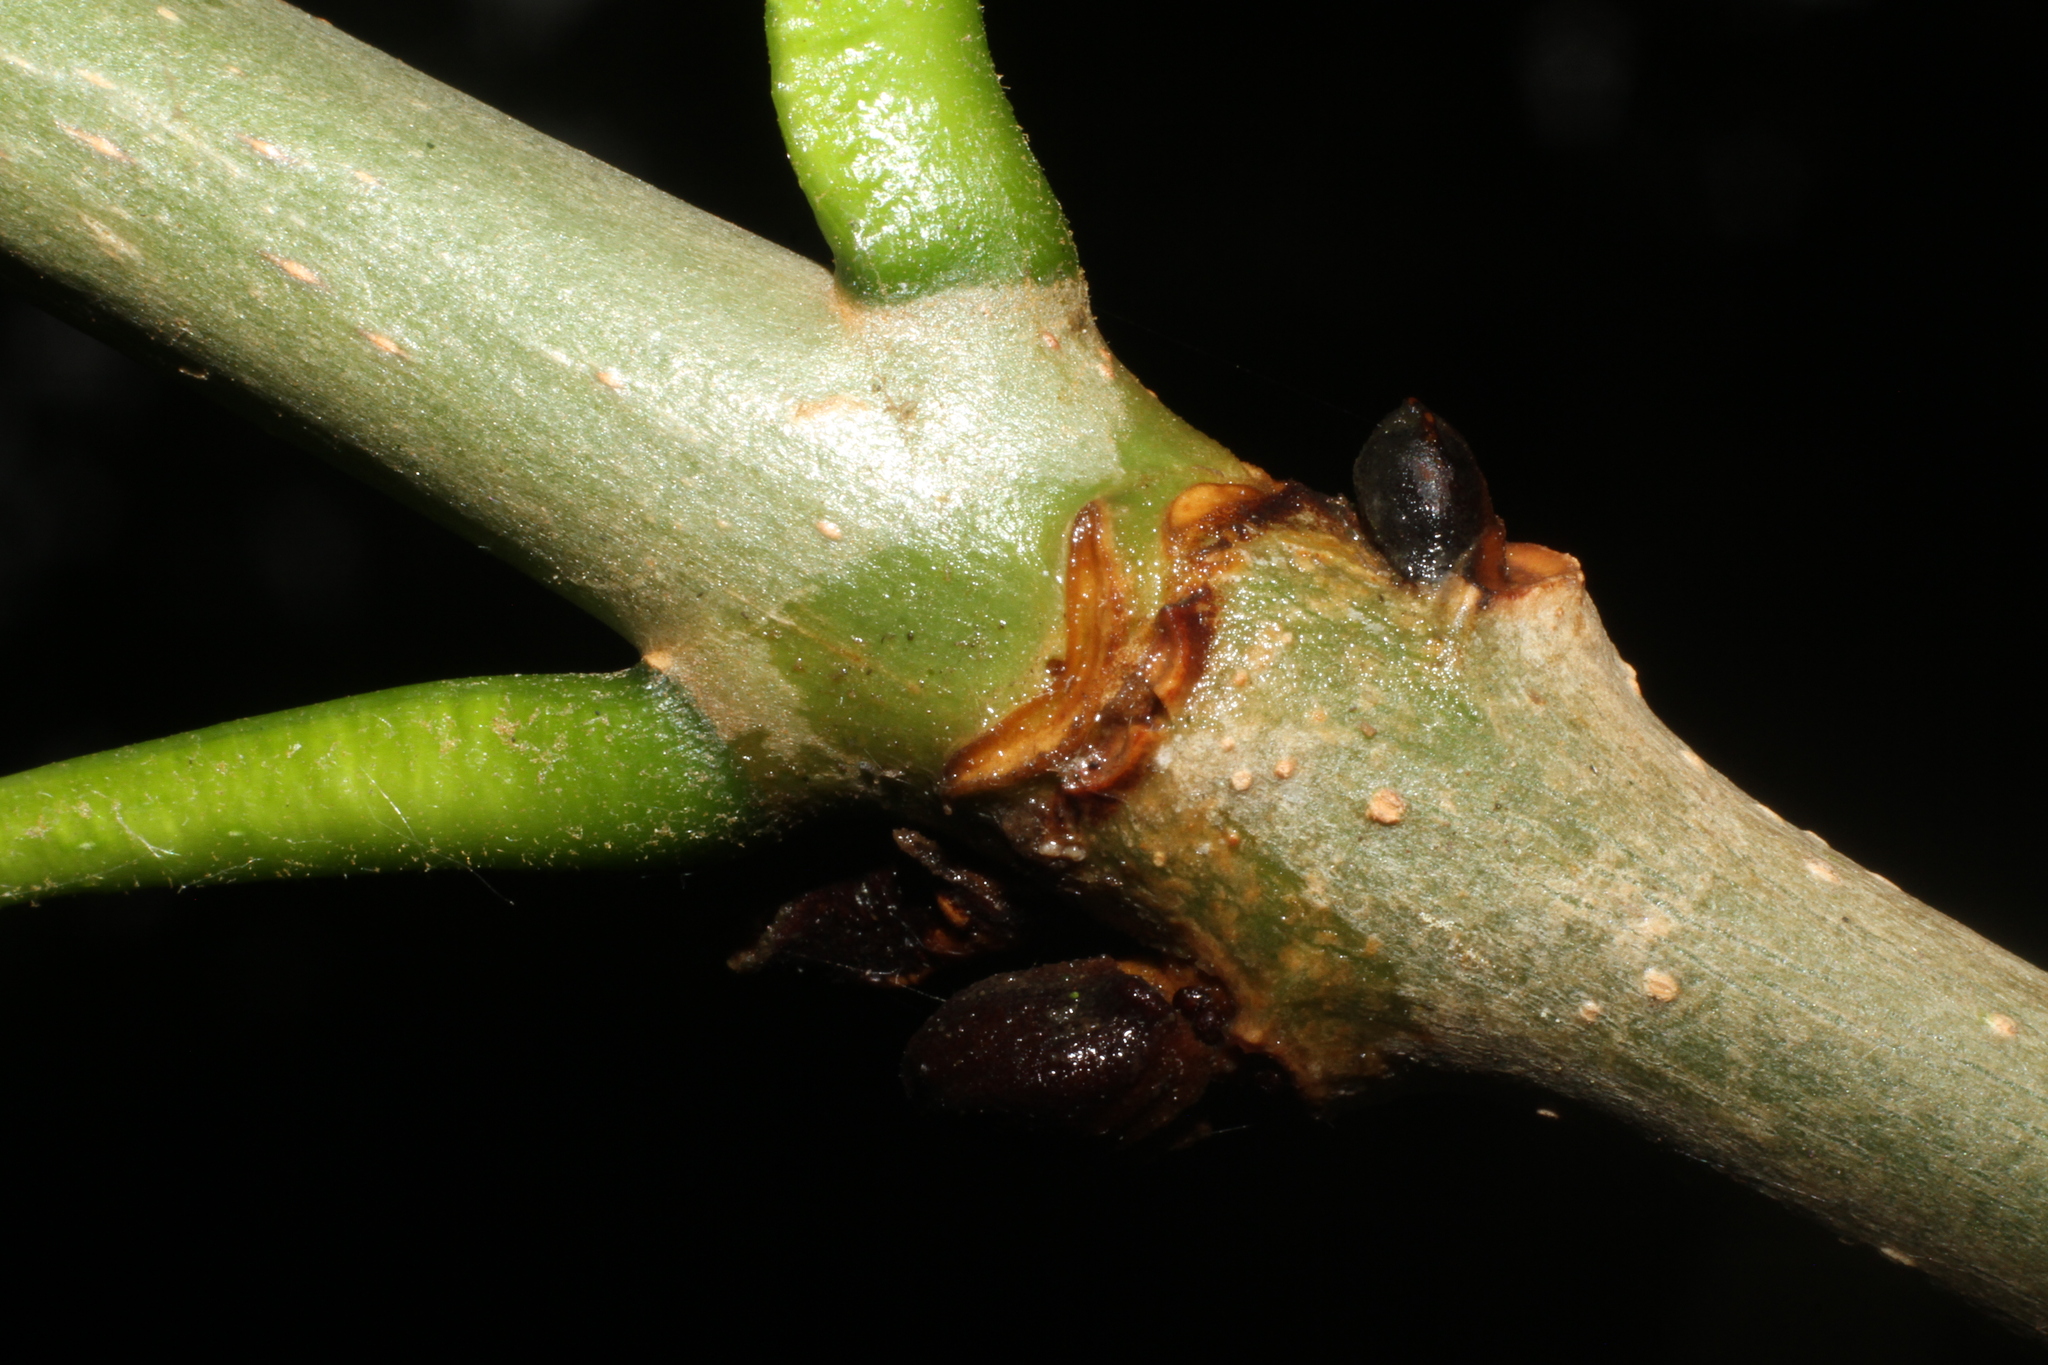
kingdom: Plantae
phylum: Tracheophyta
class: Magnoliopsida
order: Lamiales
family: Oleaceae
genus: Fraxinus
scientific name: Fraxinus excelsior
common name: European ash
